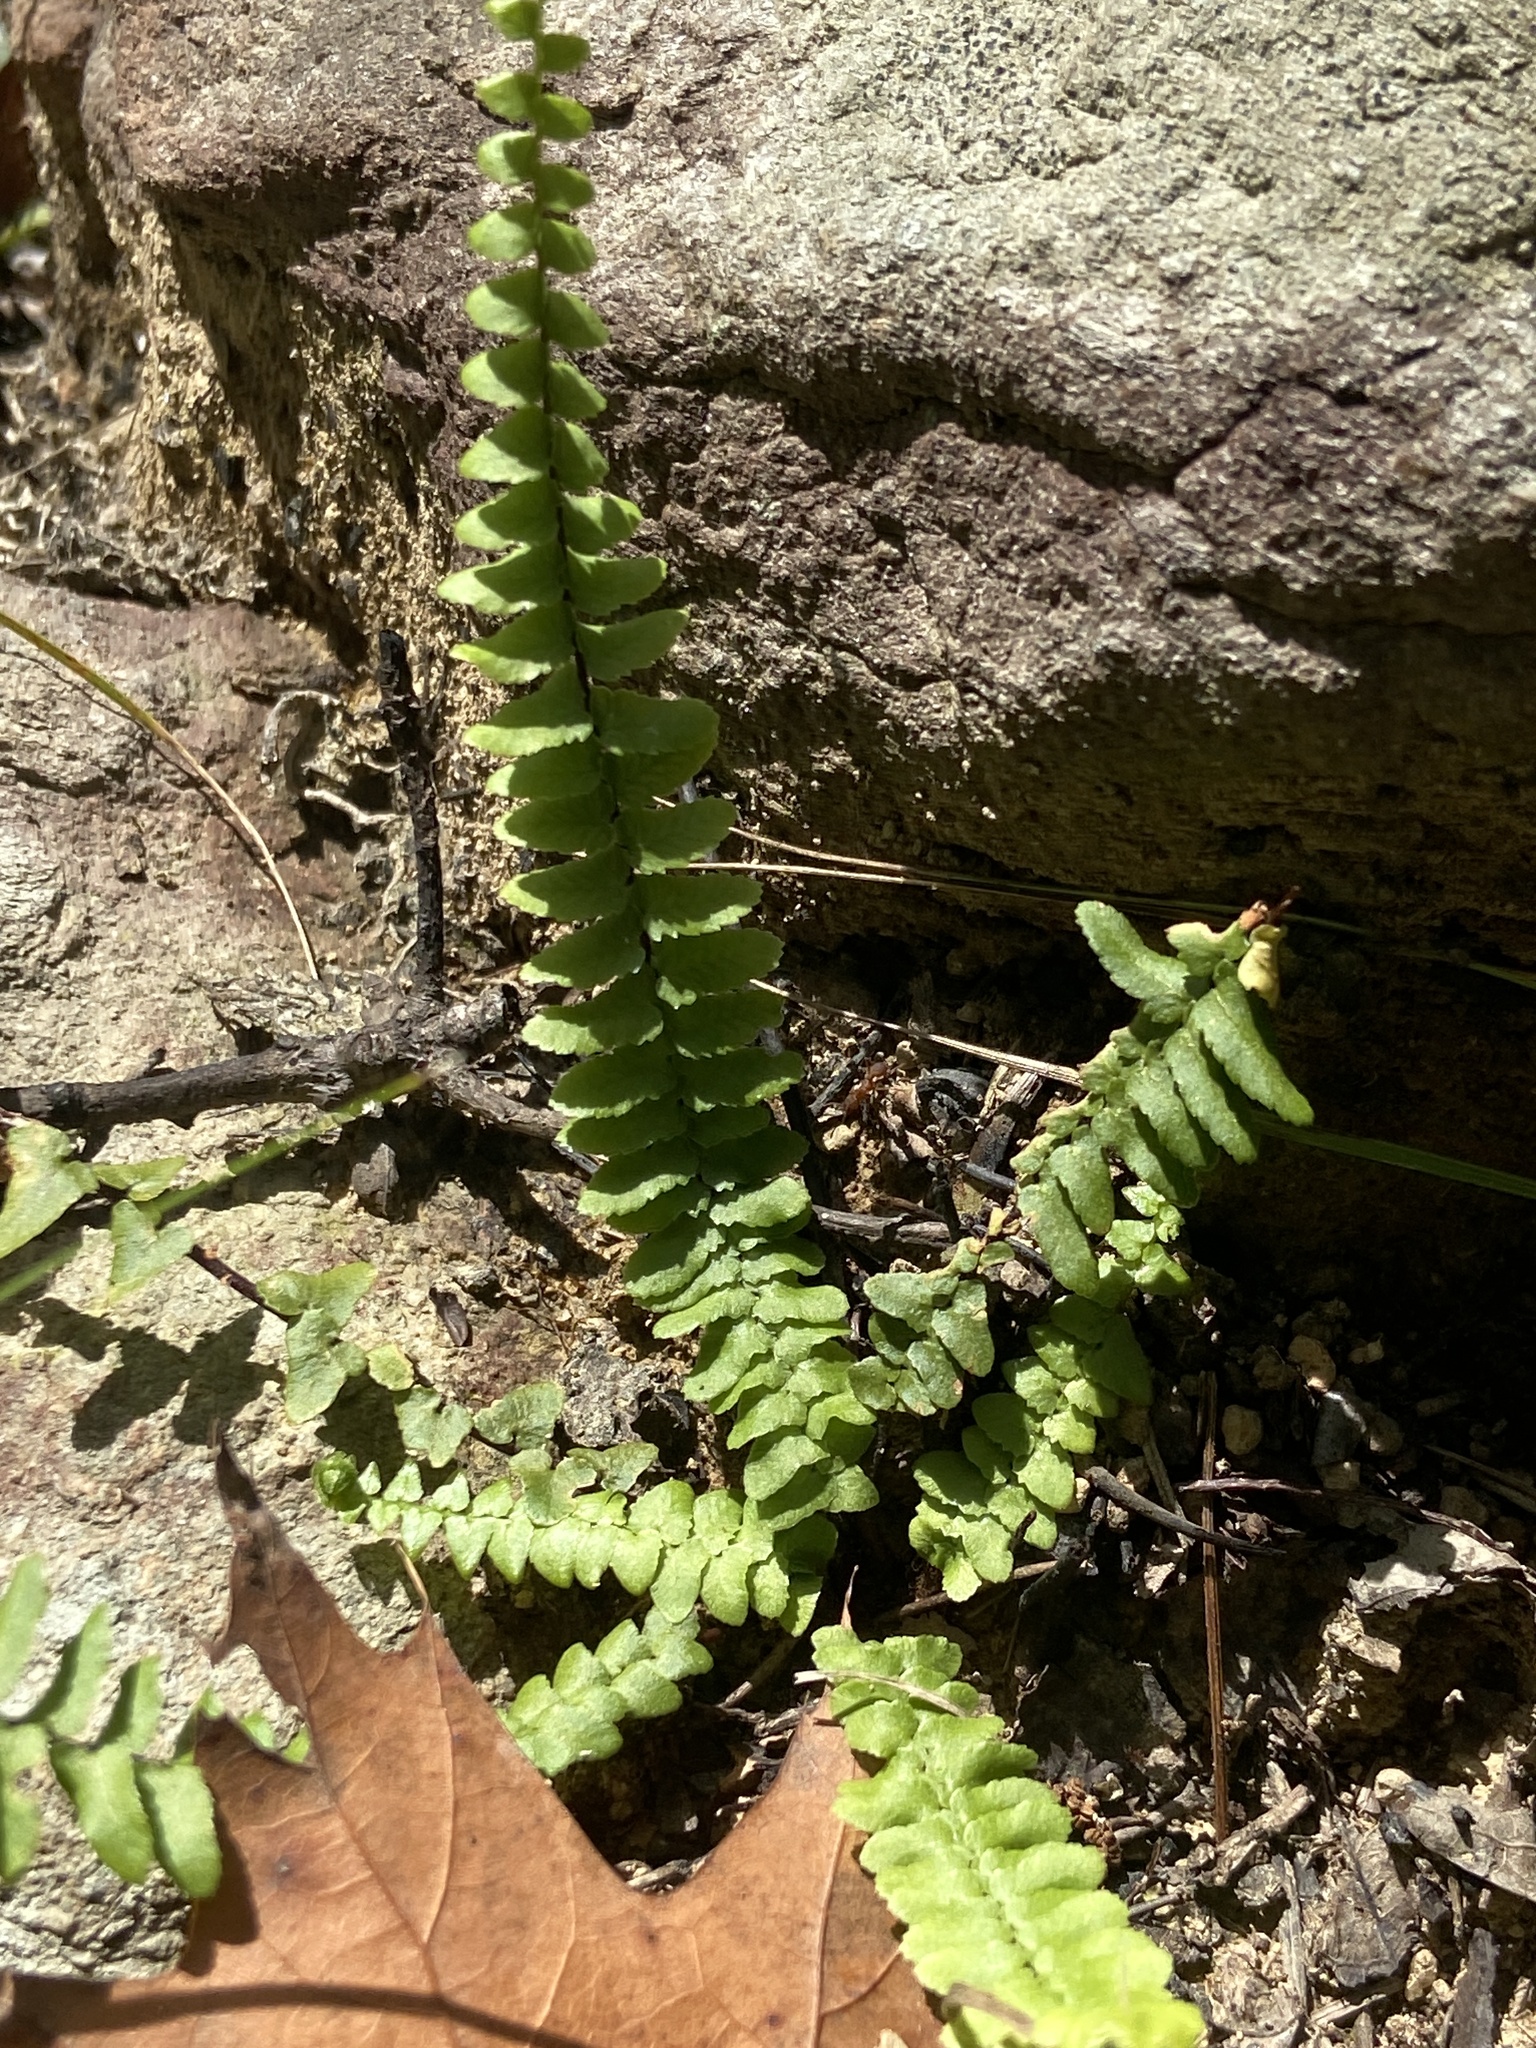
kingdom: Plantae
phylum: Tracheophyta
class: Polypodiopsida
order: Polypodiales
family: Aspleniaceae
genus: Asplenium
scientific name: Asplenium platyneuron
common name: Ebony spleenwort
